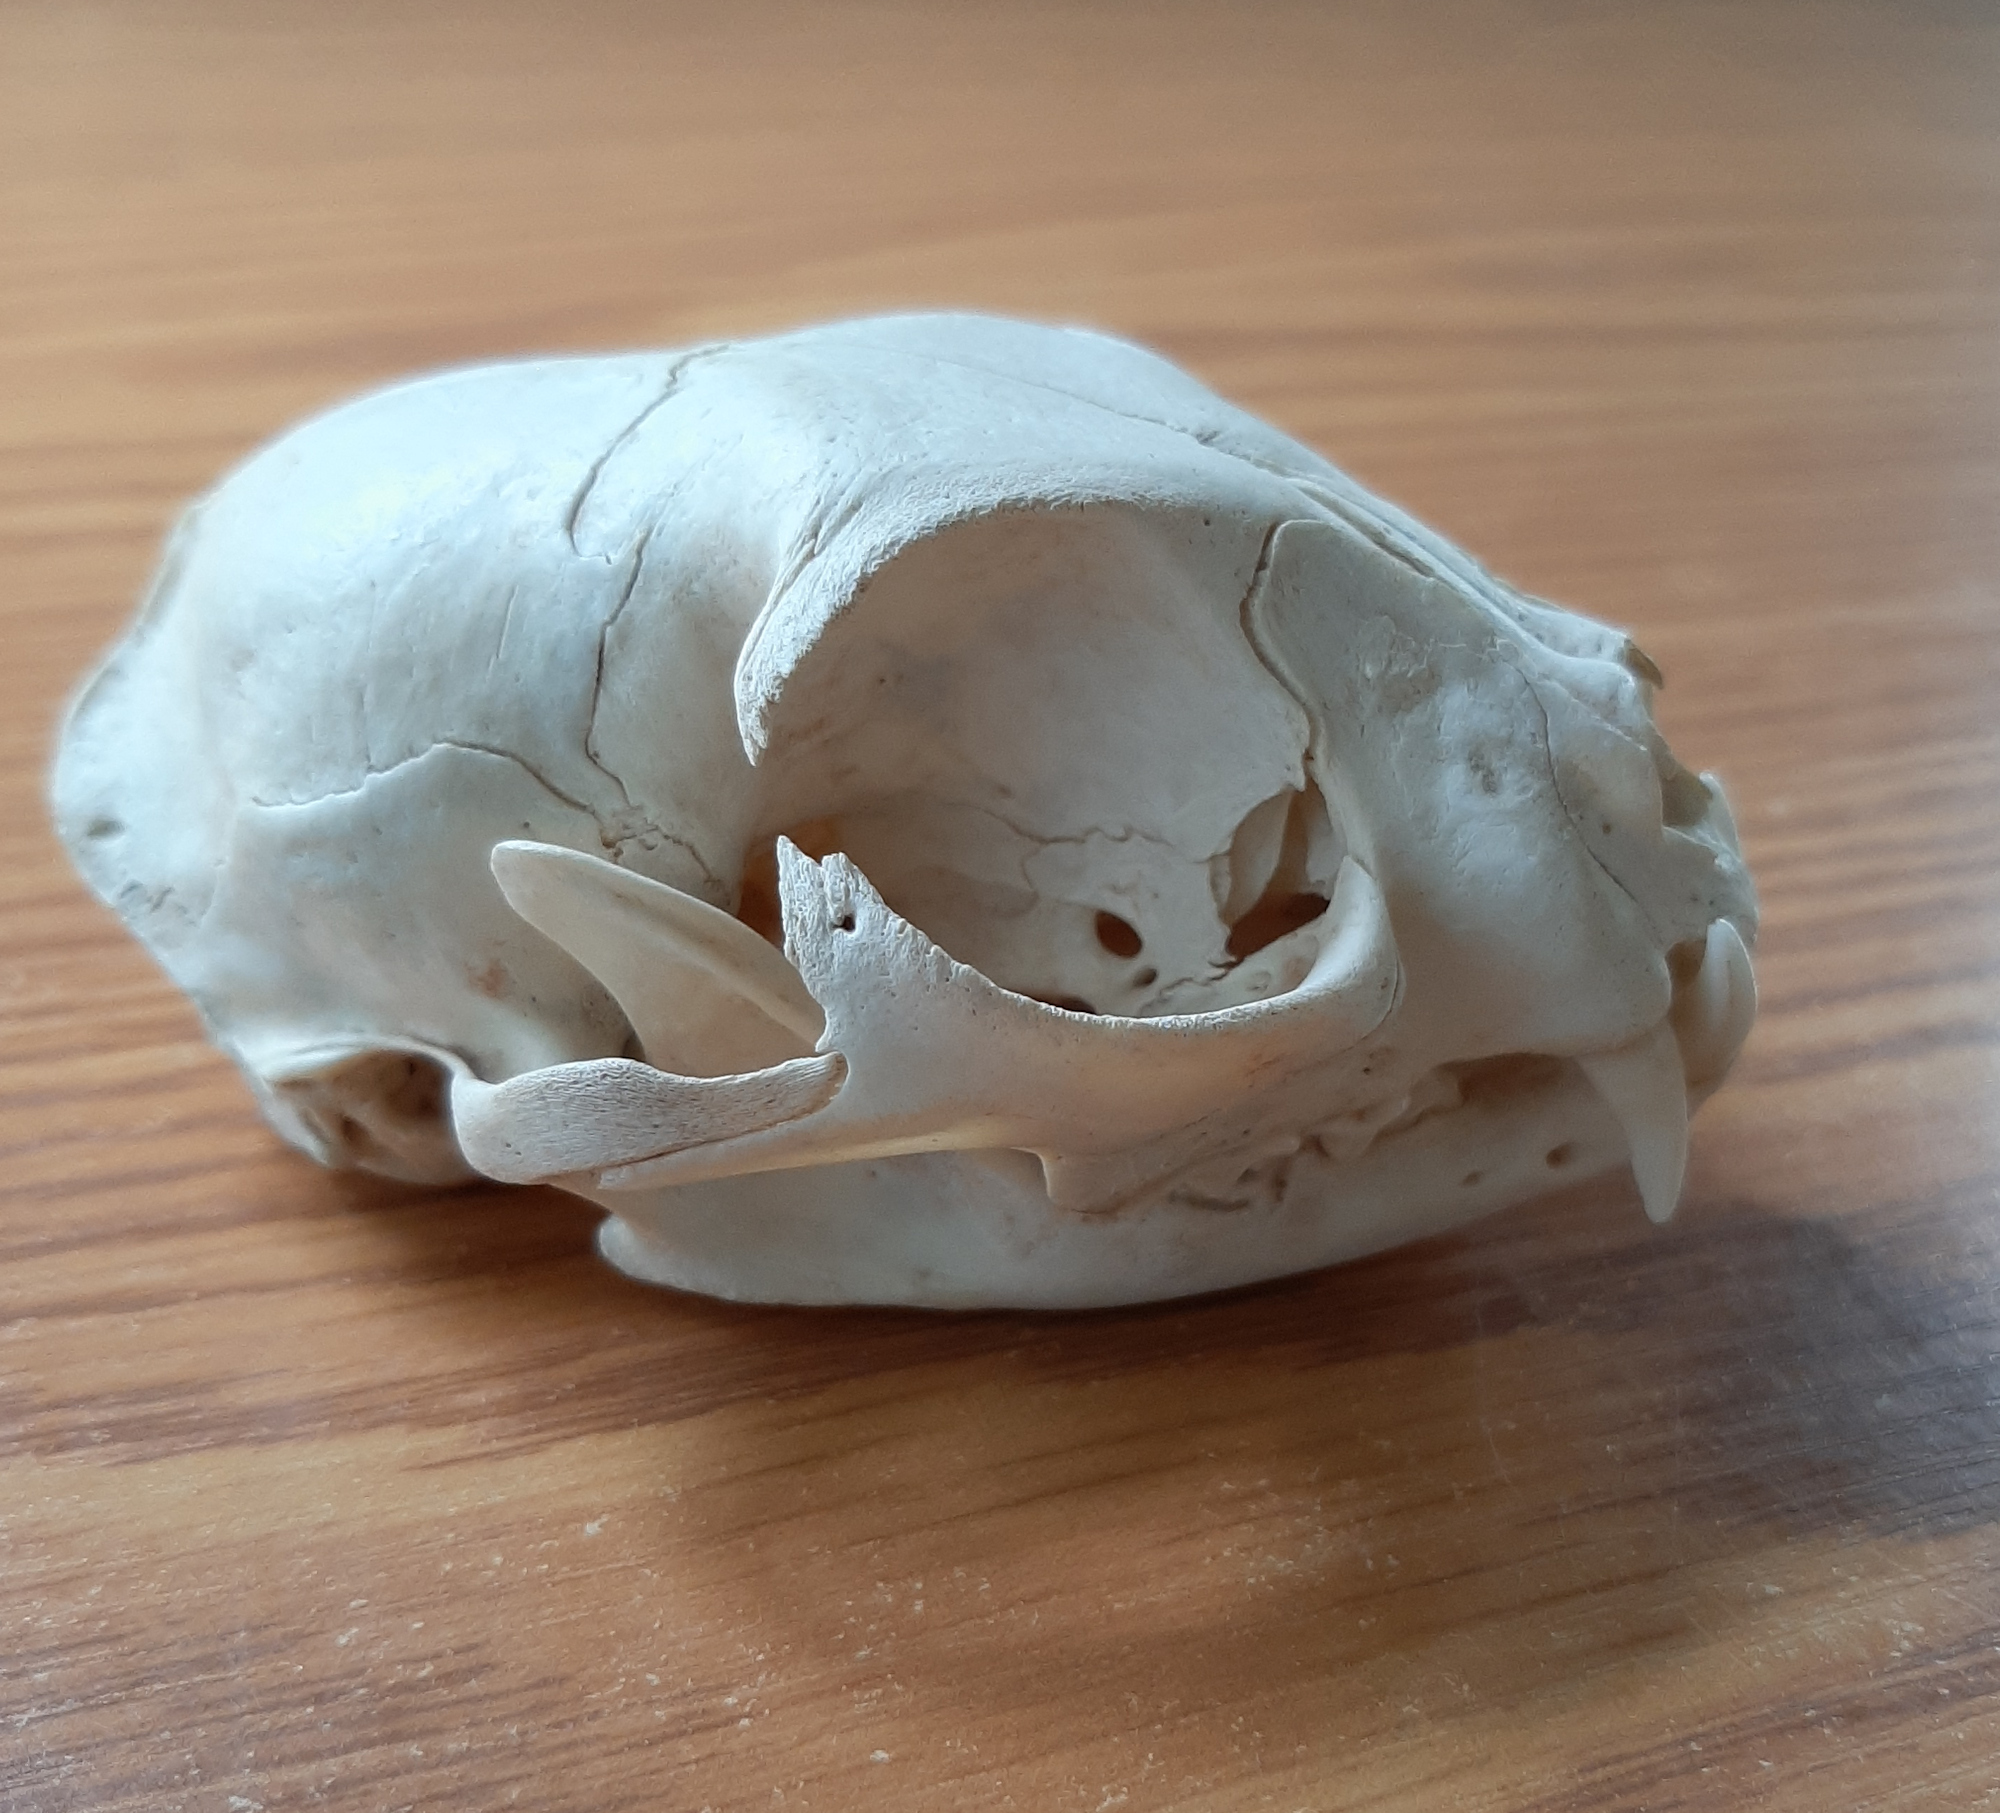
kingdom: Animalia
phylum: Chordata
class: Mammalia
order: Carnivora
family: Felidae
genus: Felis
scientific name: Felis catus
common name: Domestic cat
